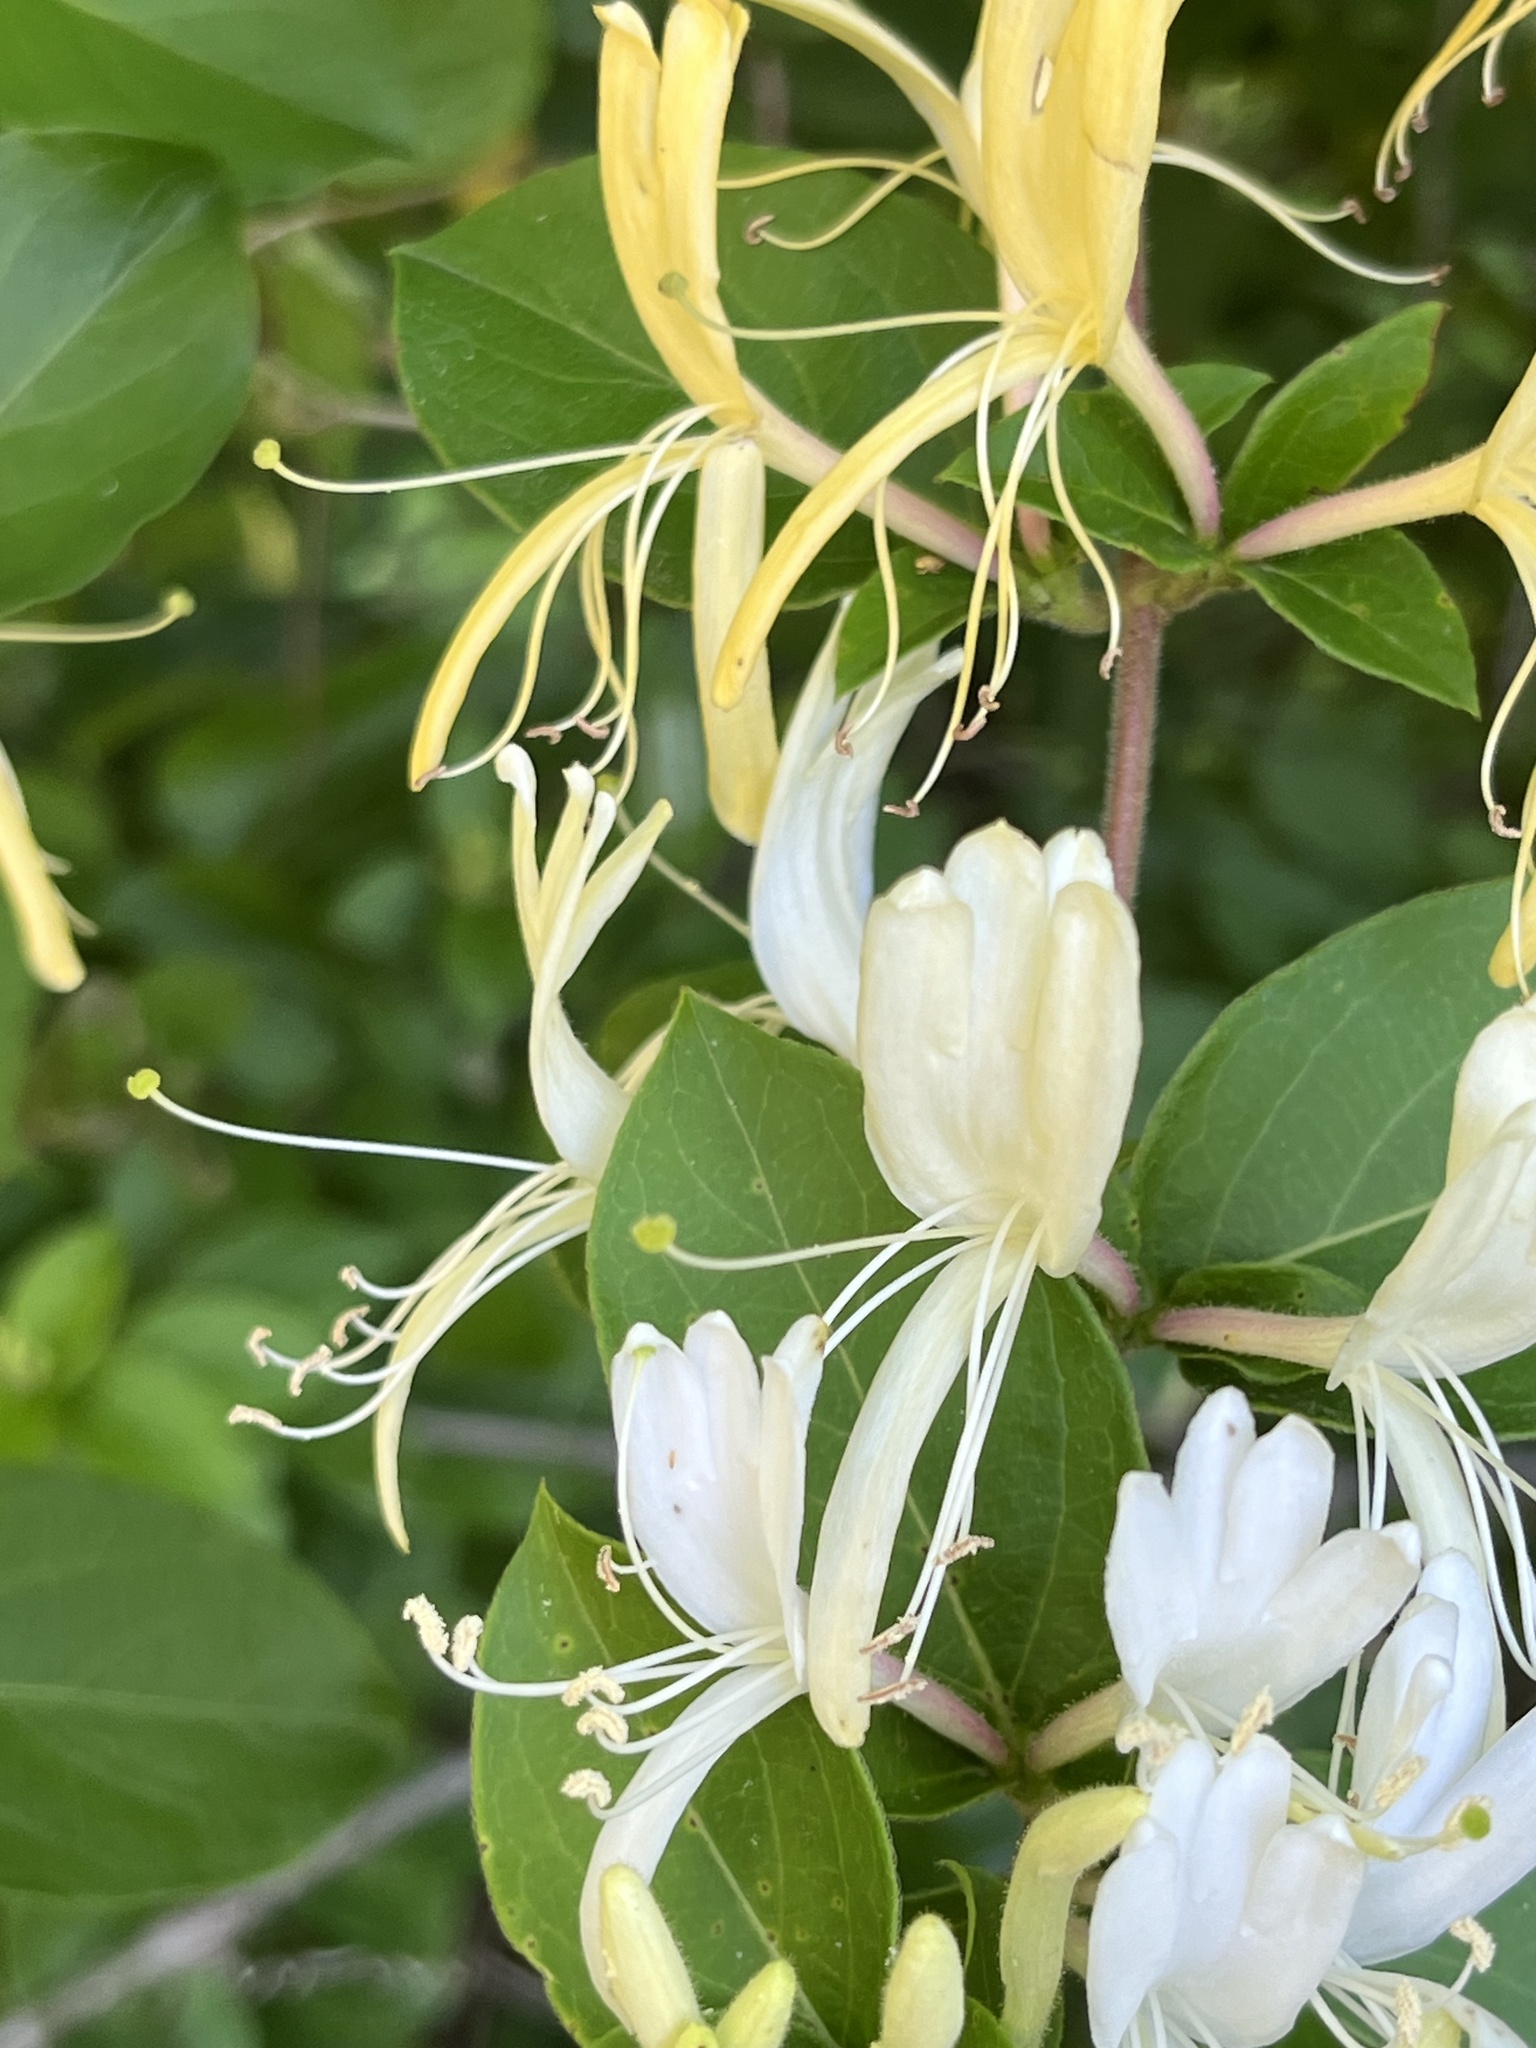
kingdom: Plantae
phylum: Tracheophyta
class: Magnoliopsida
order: Dipsacales
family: Caprifoliaceae
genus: Lonicera
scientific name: Lonicera japonica
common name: Japanese honeysuckle
